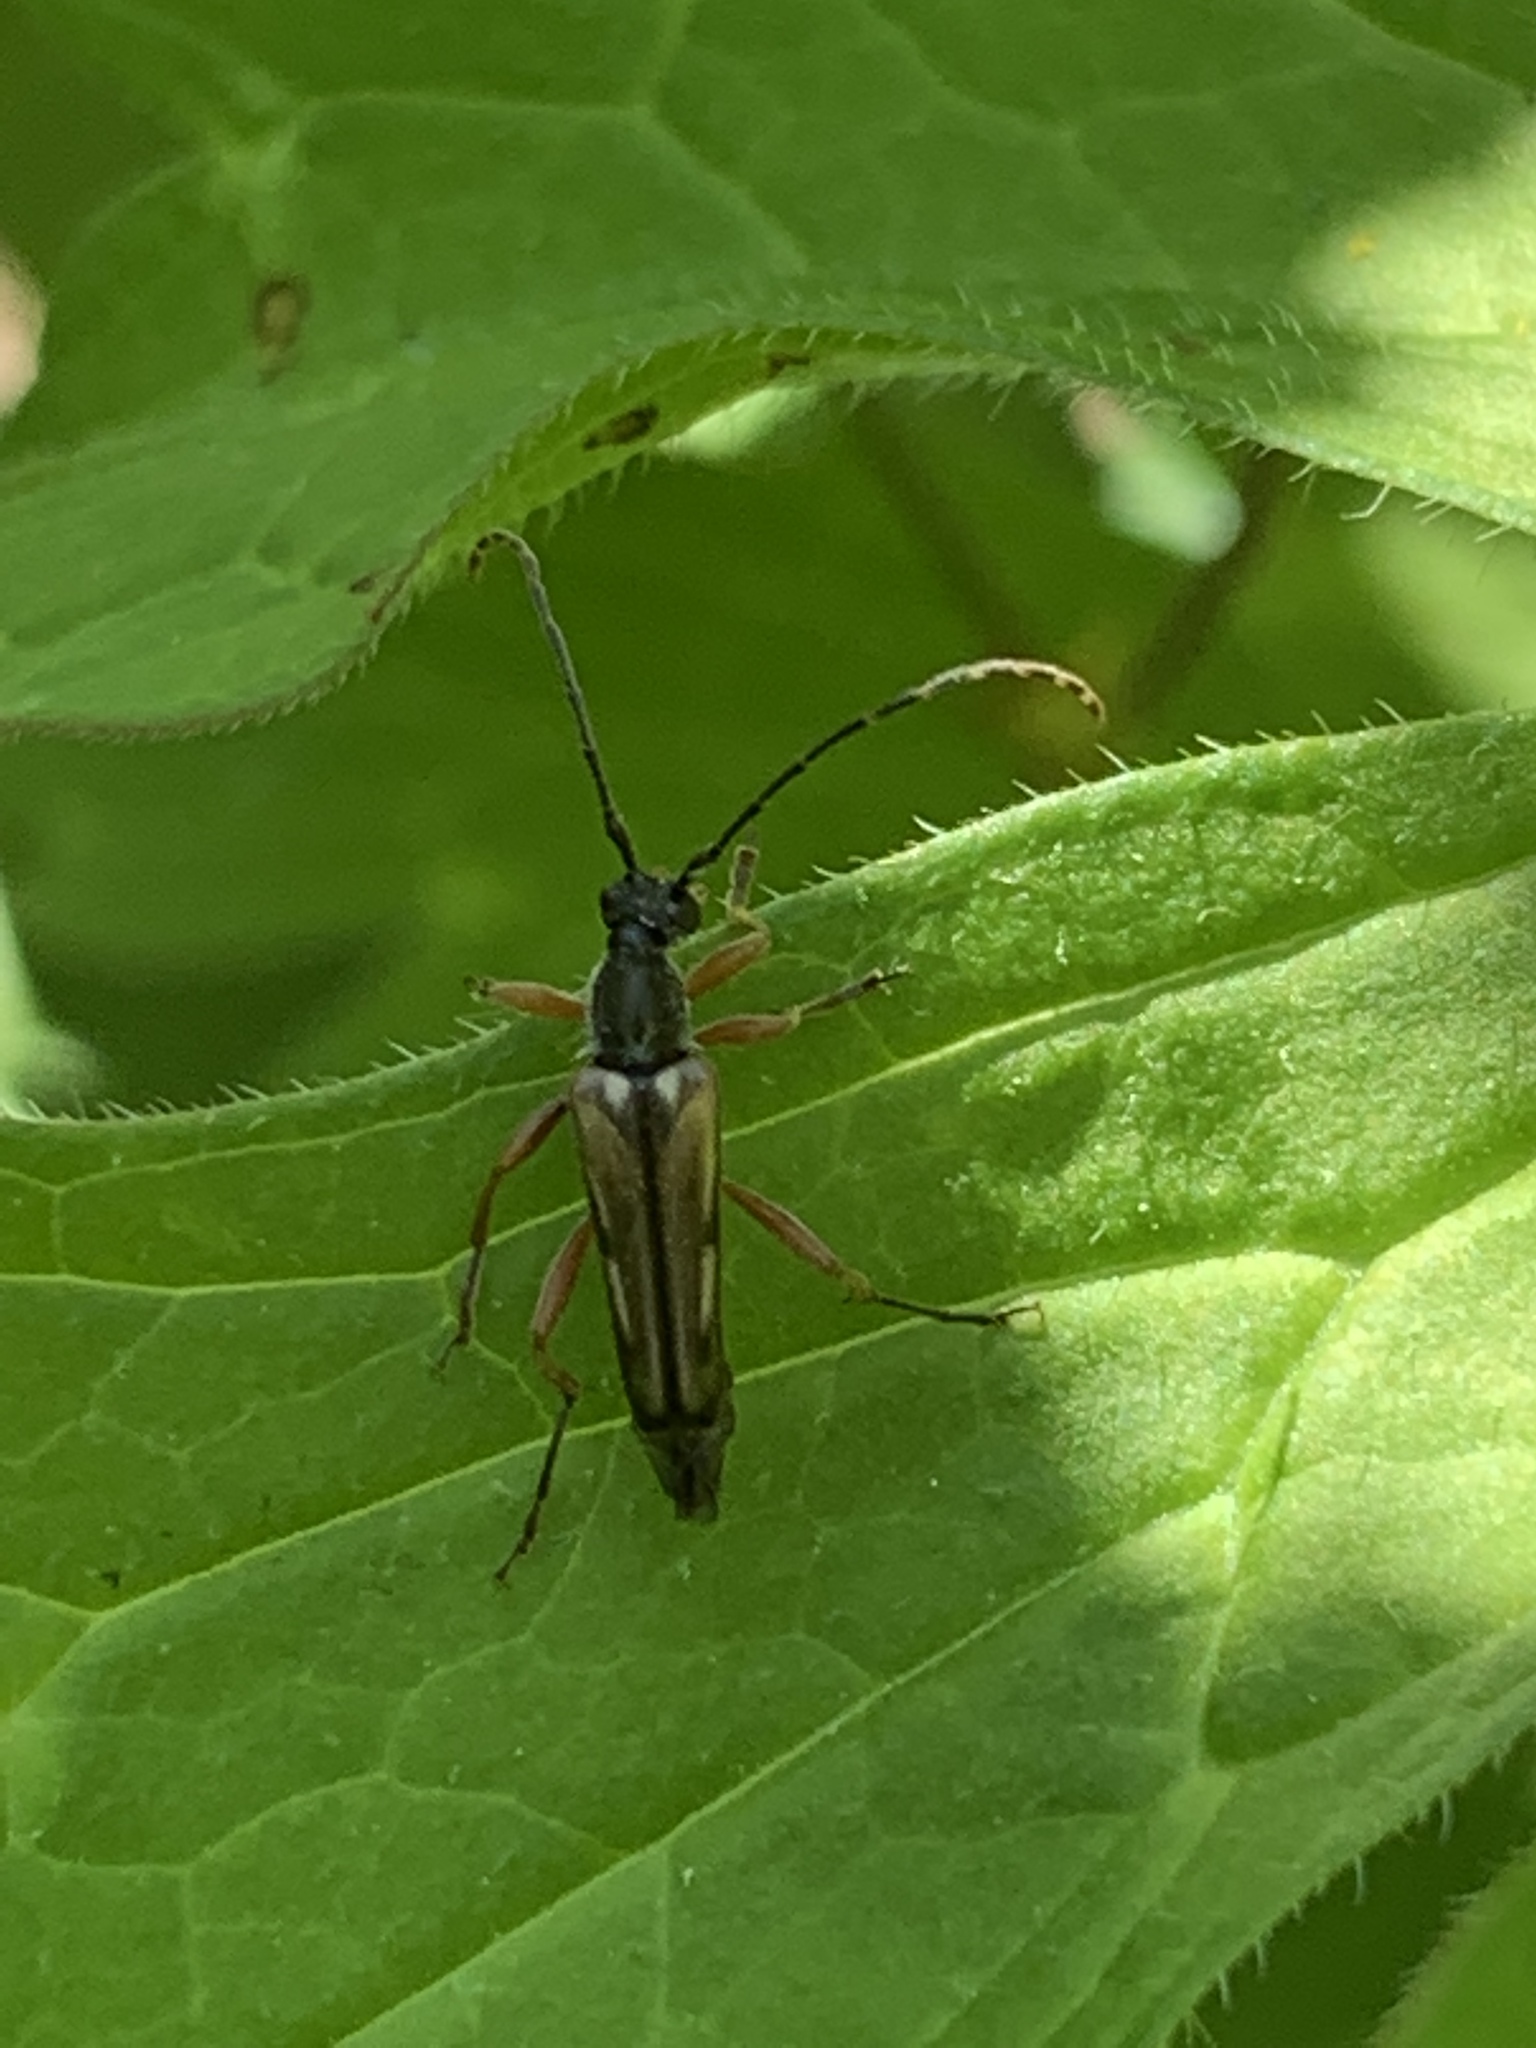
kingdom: Animalia
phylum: Arthropoda
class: Insecta
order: Coleoptera
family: Cerambycidae
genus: Analeptura
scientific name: Analeptura lineola
